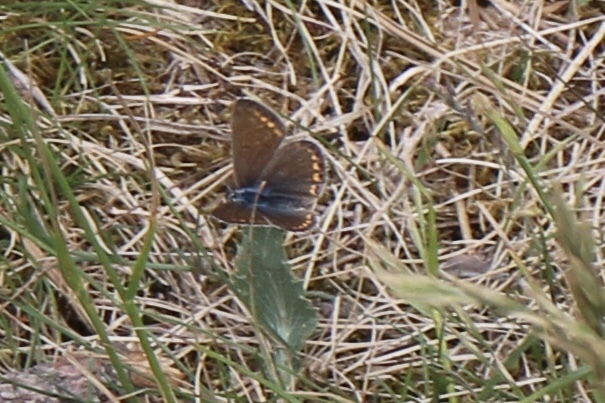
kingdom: Animalia
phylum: Arthropoda
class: Insecta
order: Lepidoptera
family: Lycaenidae
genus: Polyommatus
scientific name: Polyommatus icarus
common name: Common blue
